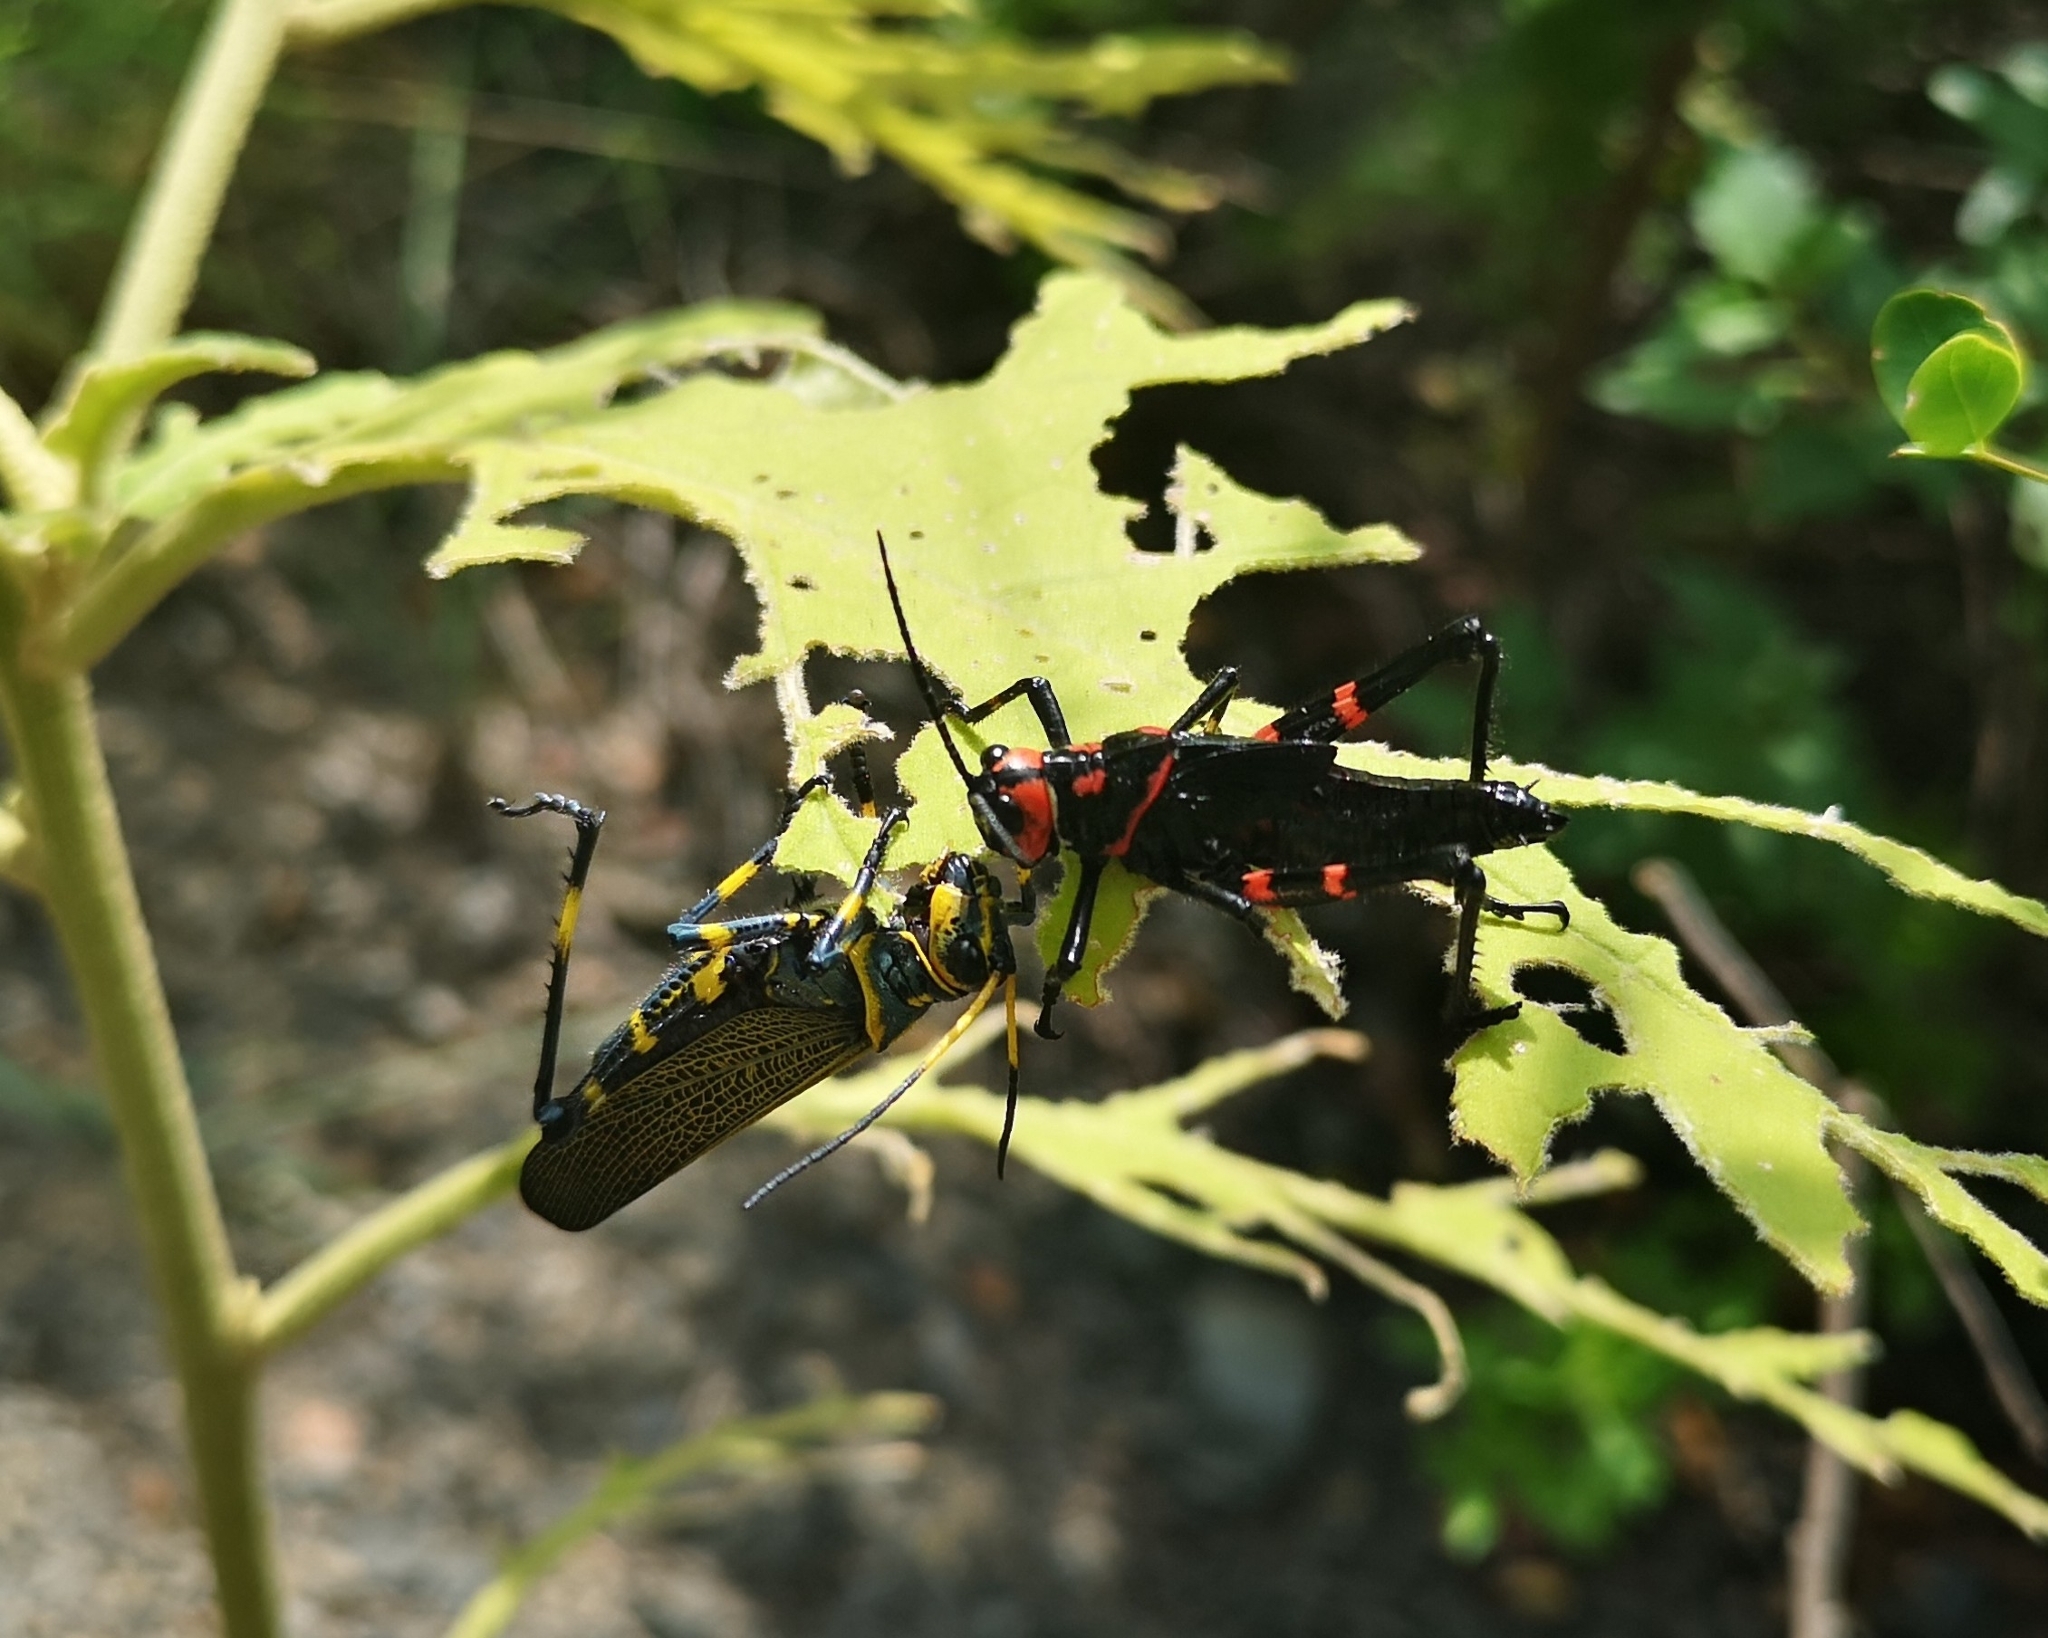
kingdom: Animalia
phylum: Arthropoda
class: Insecta
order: Orthoptera
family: Romaleidae
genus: Chromacris
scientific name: Chromacris colorata
